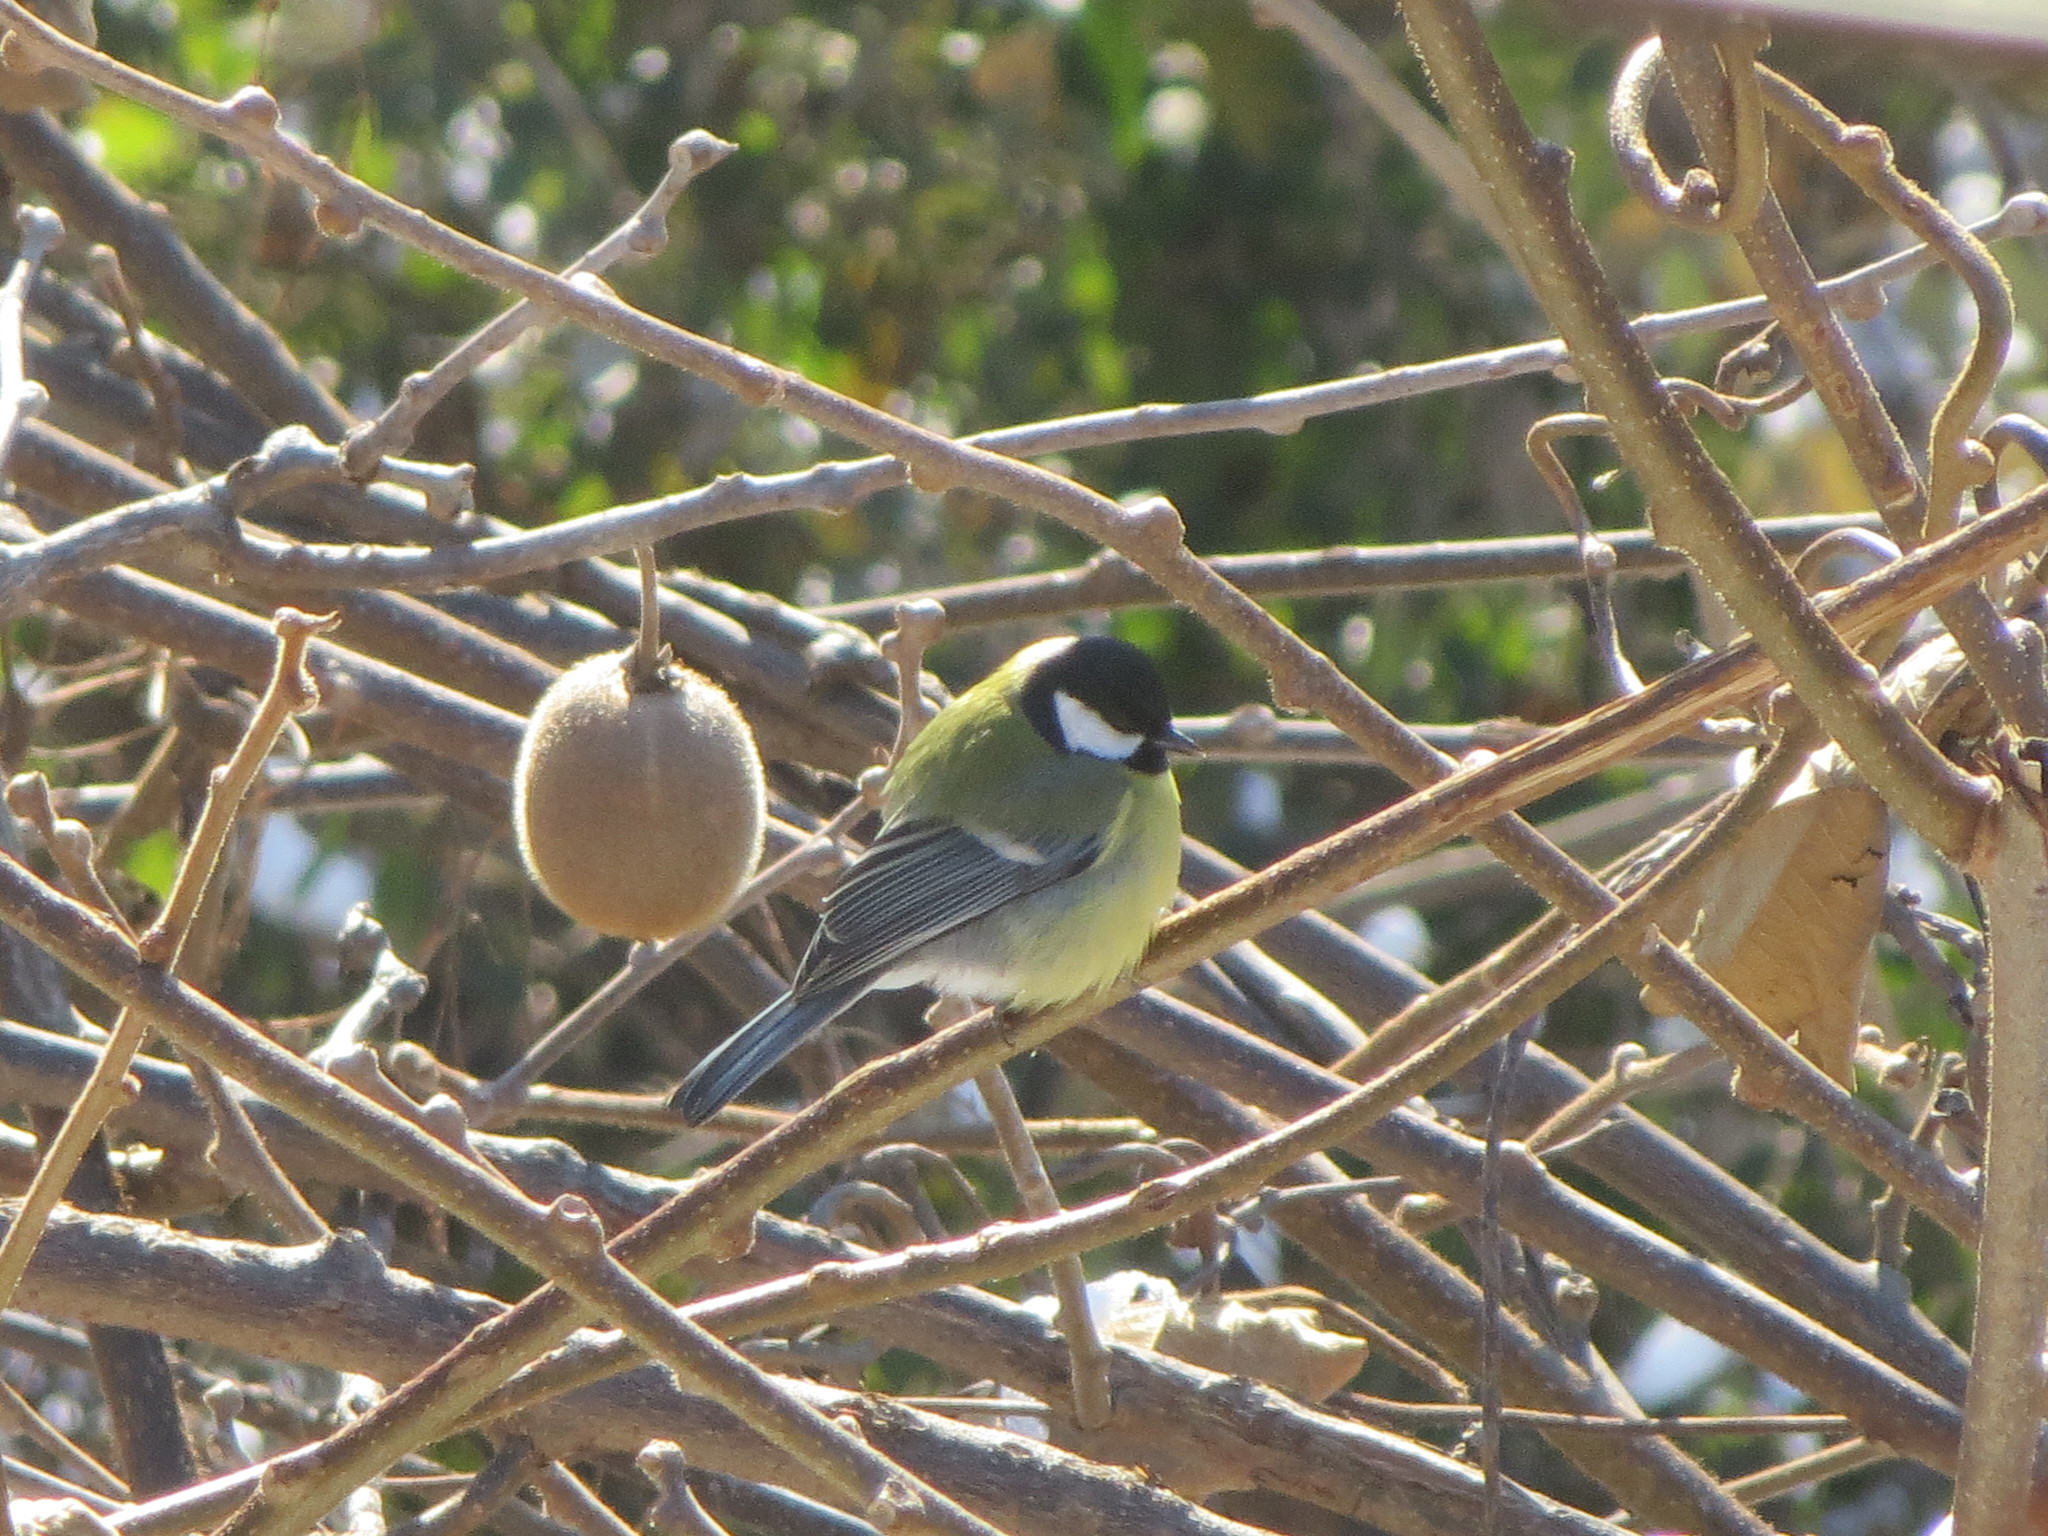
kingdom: Animalia
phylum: Chordata
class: Aves
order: Passeriformes
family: Paridae
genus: Parus
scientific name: Parus major
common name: Great tit
